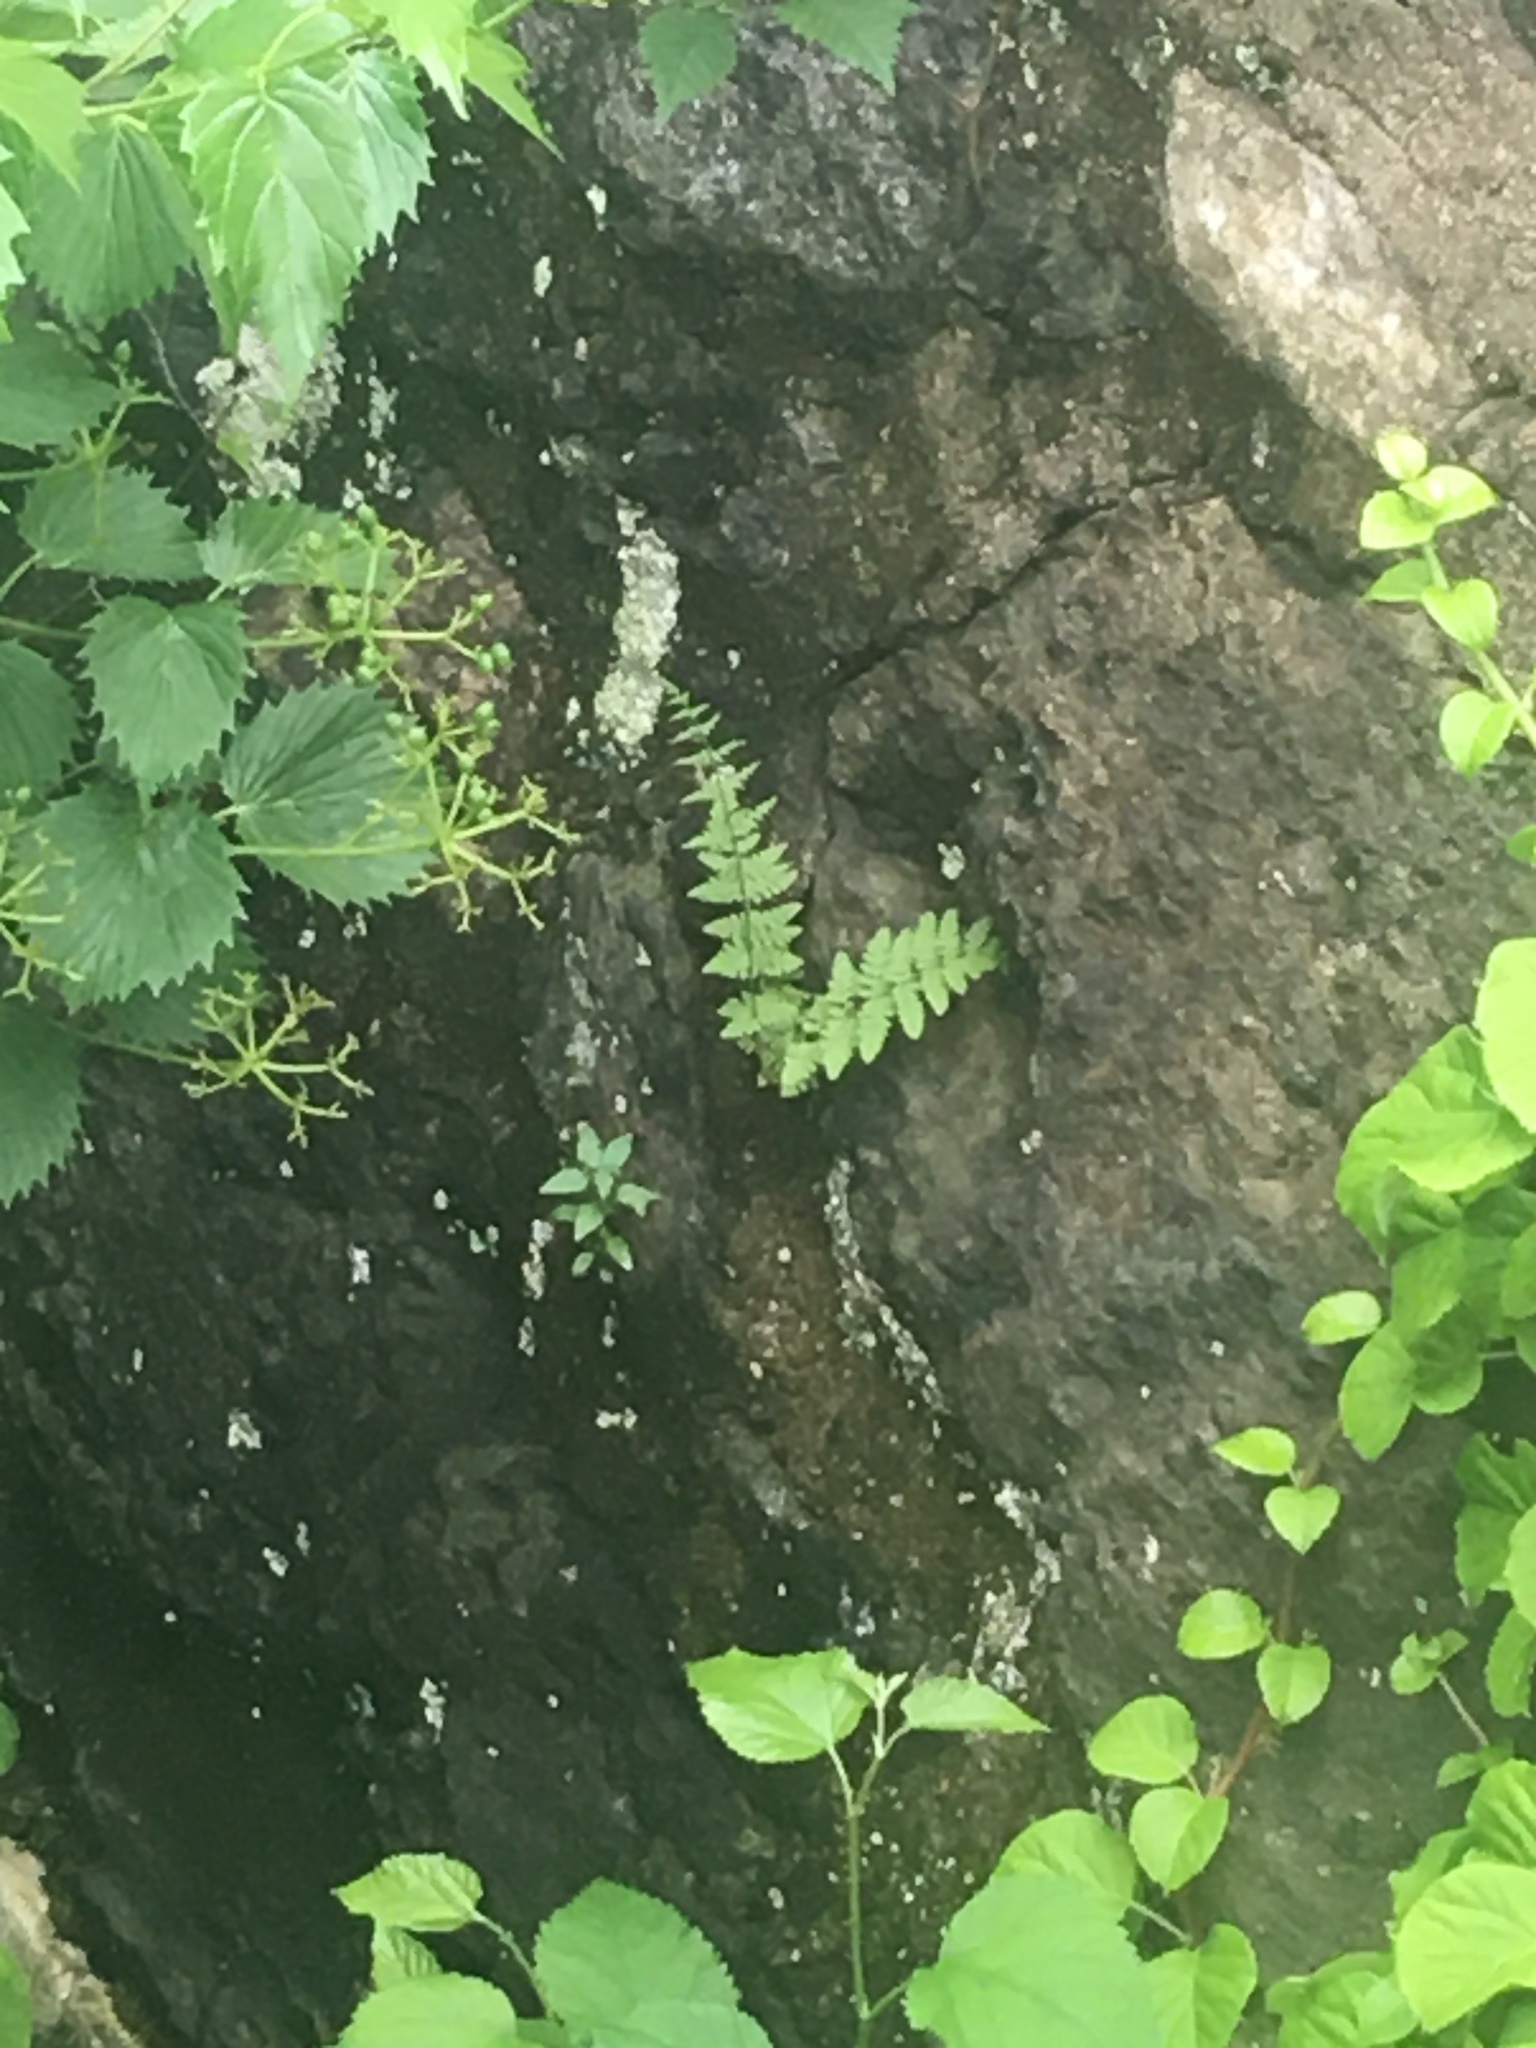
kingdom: Plantae
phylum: Tracheophyta
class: Polypodiopsida
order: Polypodiales
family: Woodsiaceae
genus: Physematium
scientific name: Physematium obtusum
